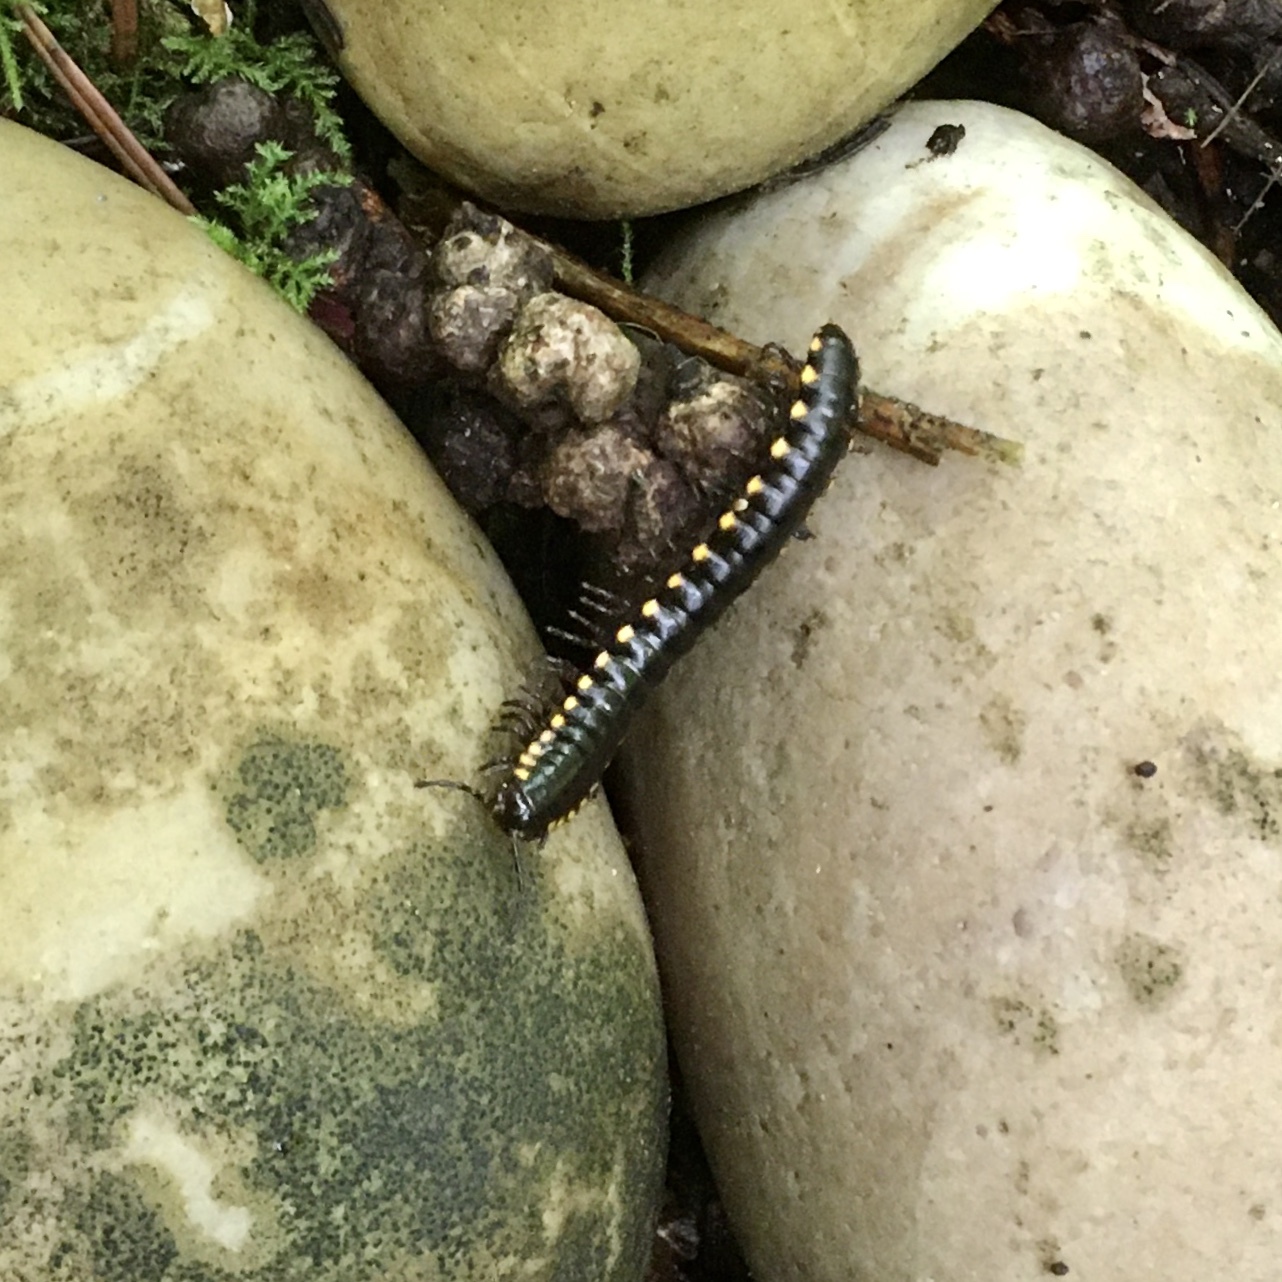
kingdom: Animalia
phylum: Arthropoda
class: Diplopoda
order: Polydesmida
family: Xystodesmidae
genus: Harpaphe
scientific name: Harpaphe haydeniana
